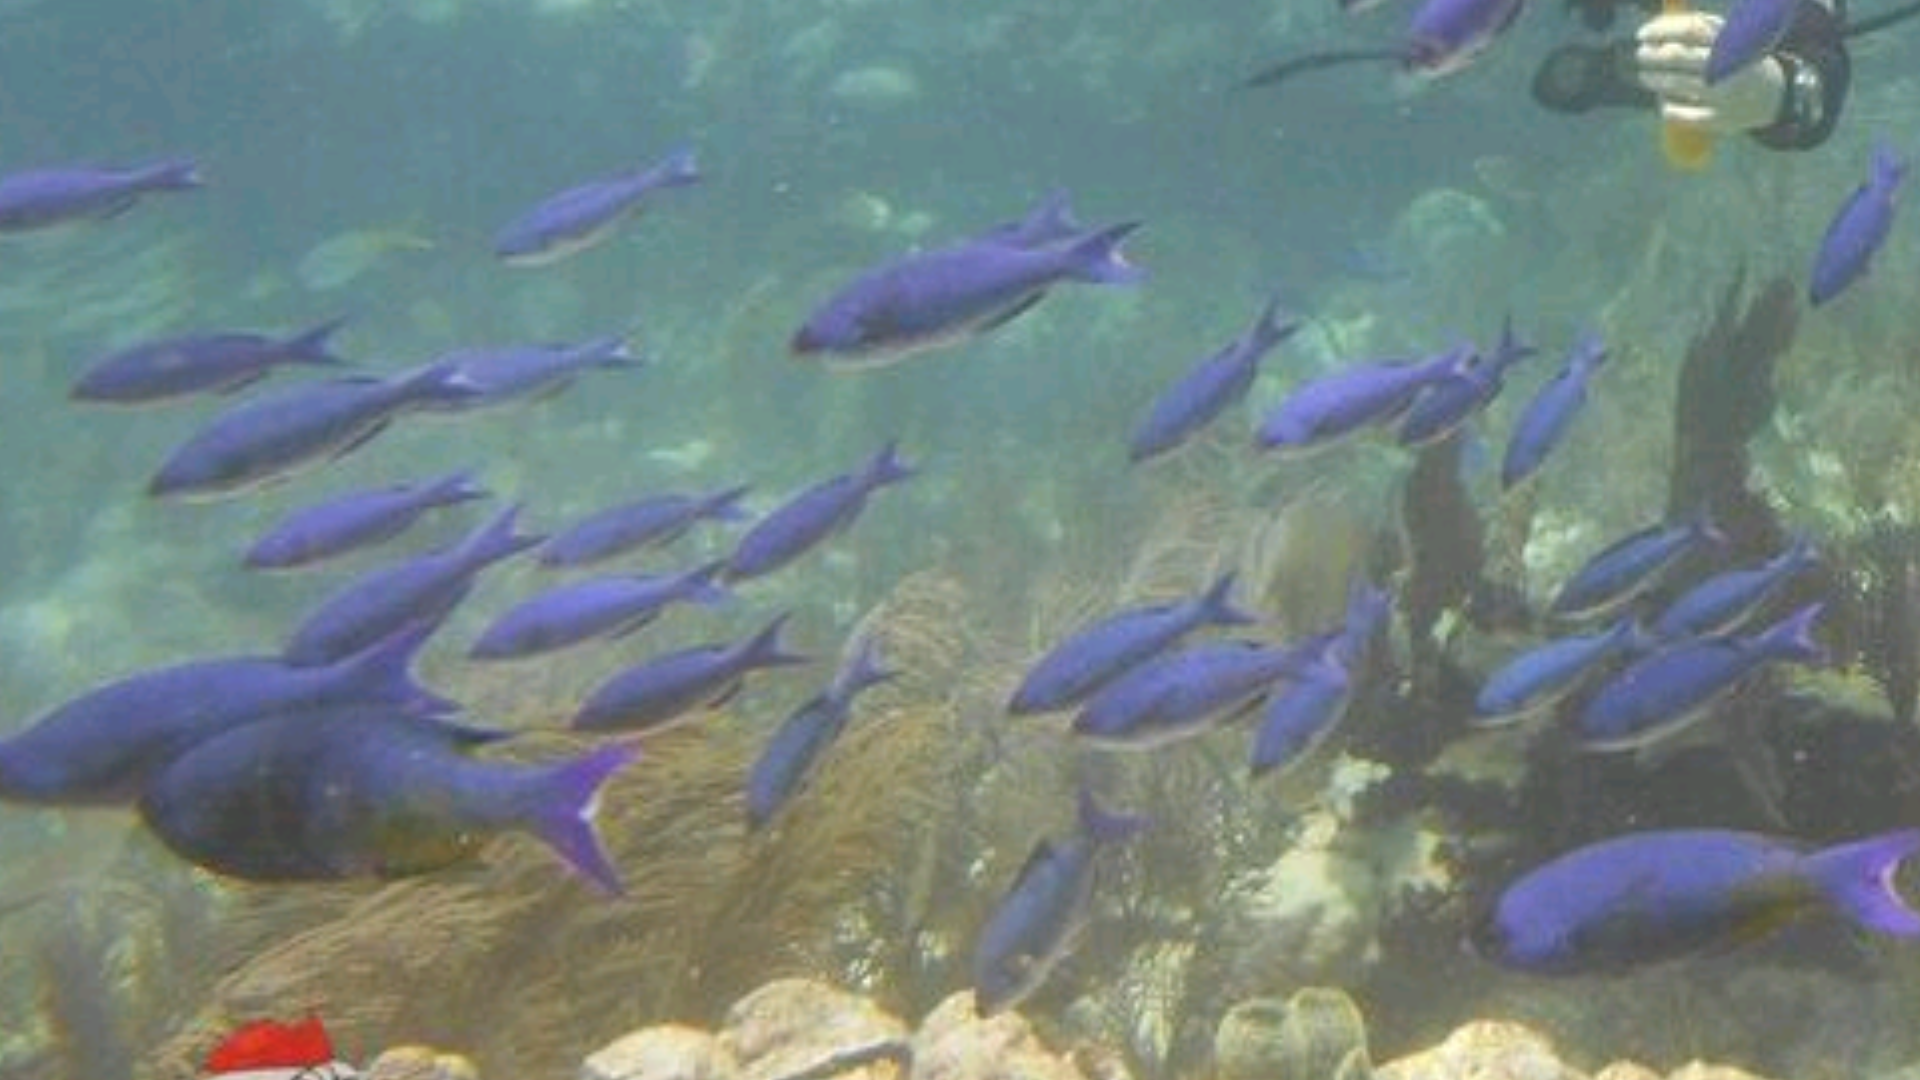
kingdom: Animalia
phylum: Chordata
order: Perciformes
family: Labridae
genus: Bodianus
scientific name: Bodianus
